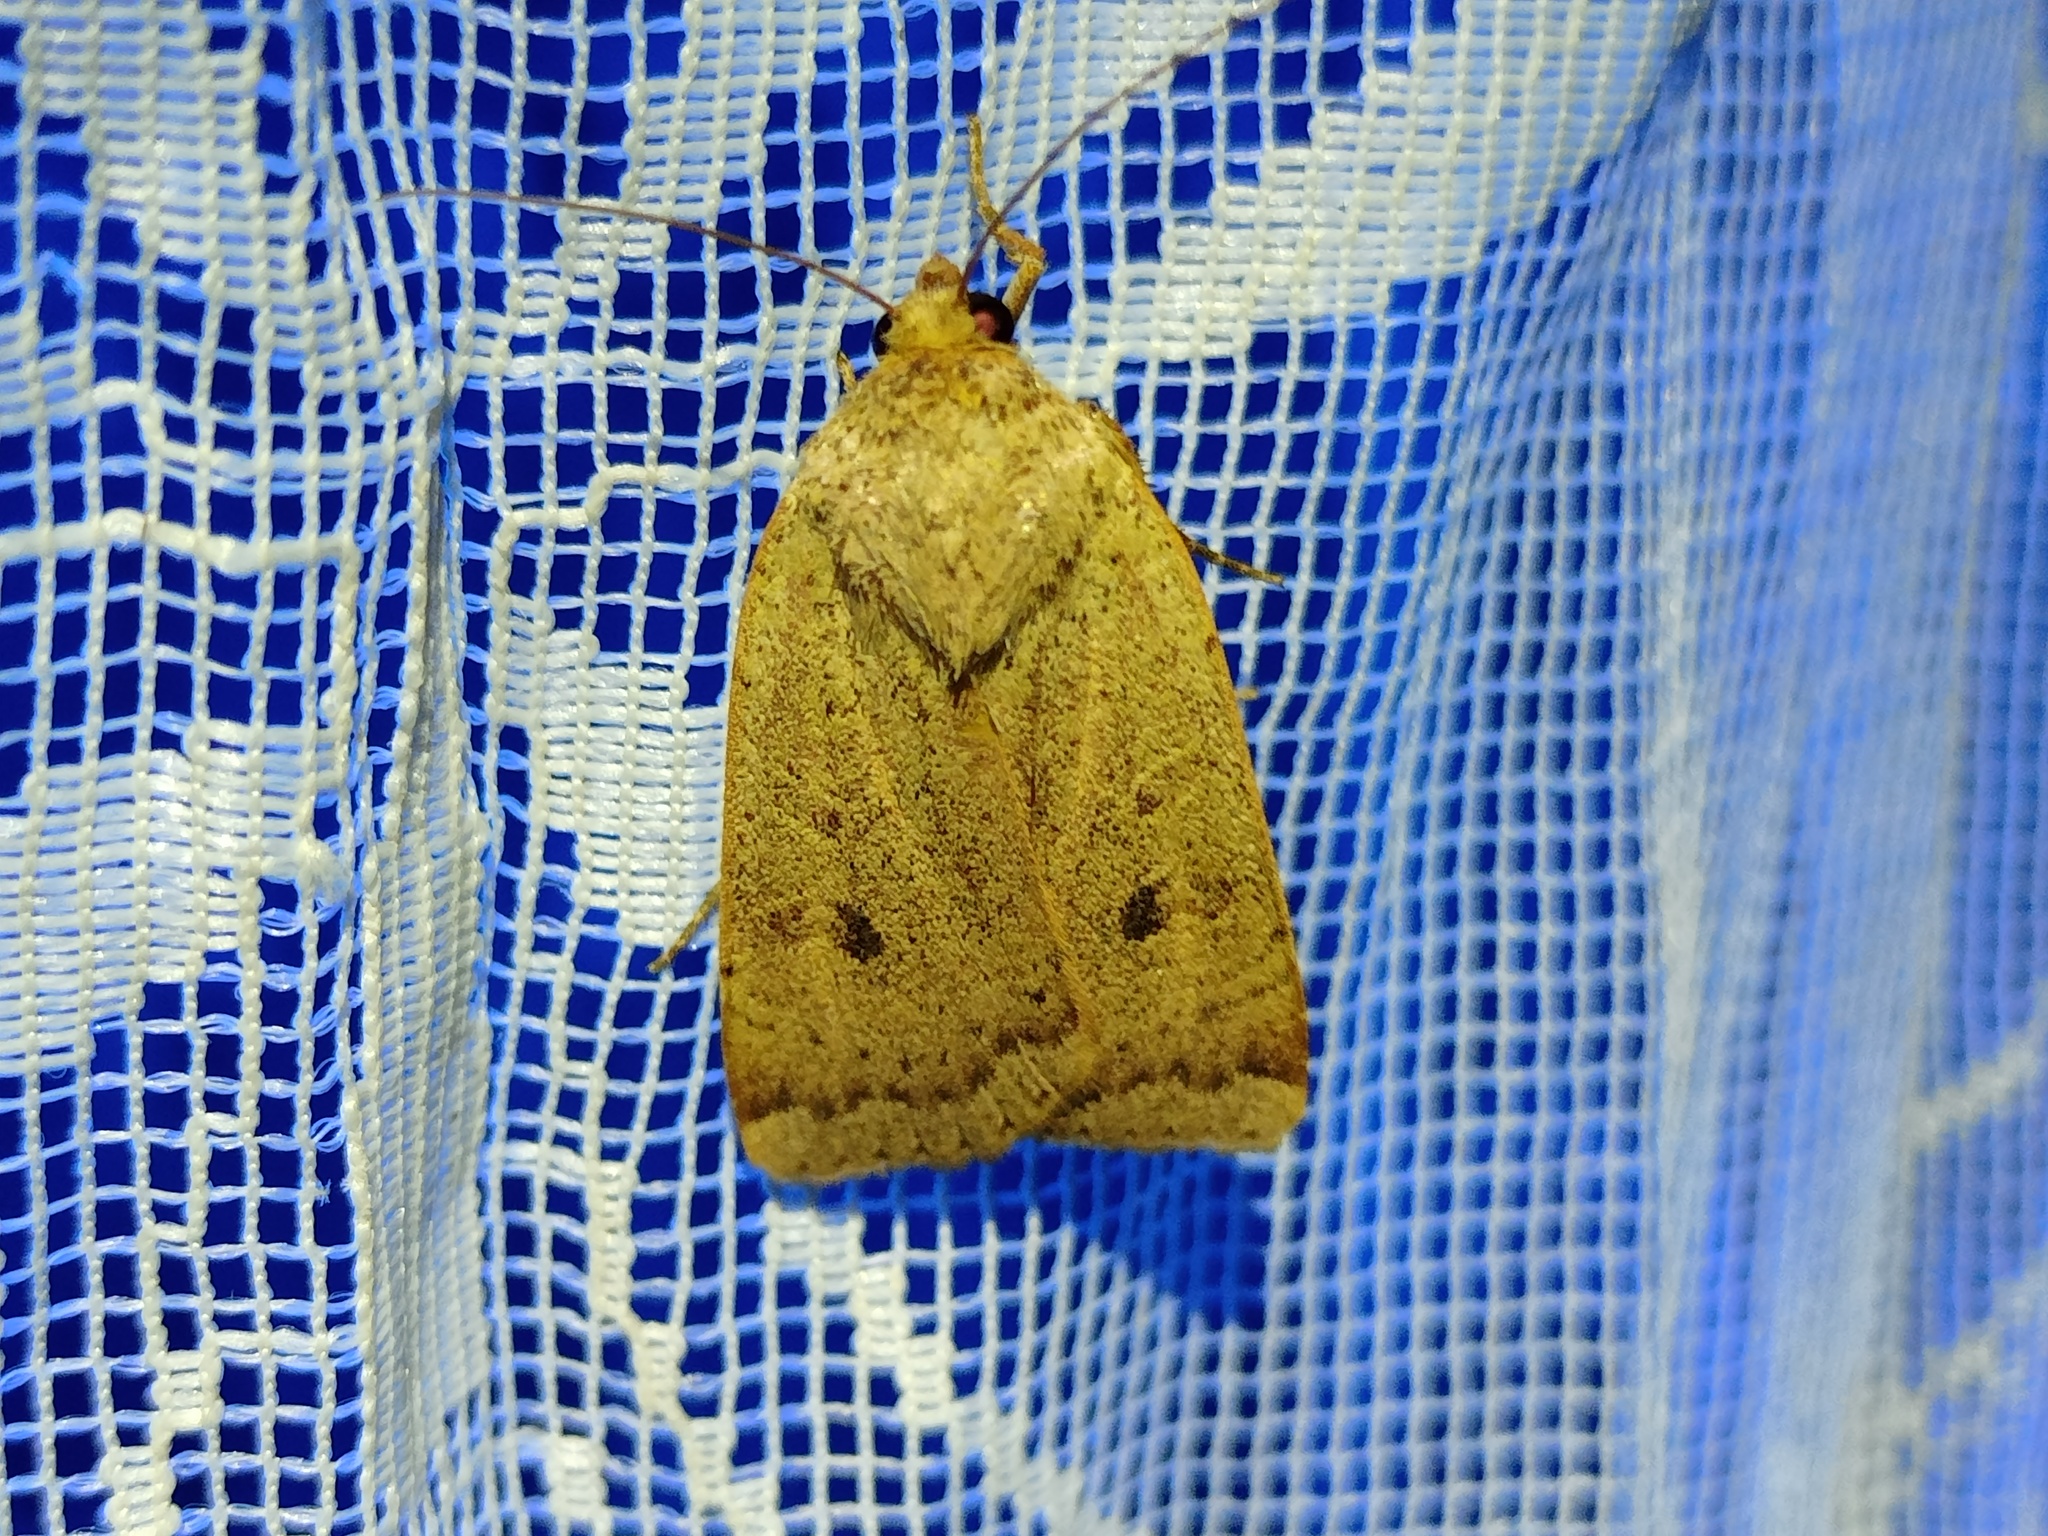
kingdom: Animalia
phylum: Arthropoda
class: Insecta
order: Lepidoptera
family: Noctuidae
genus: Noctua
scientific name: Noctua comes
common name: Lesser yellow underwing
